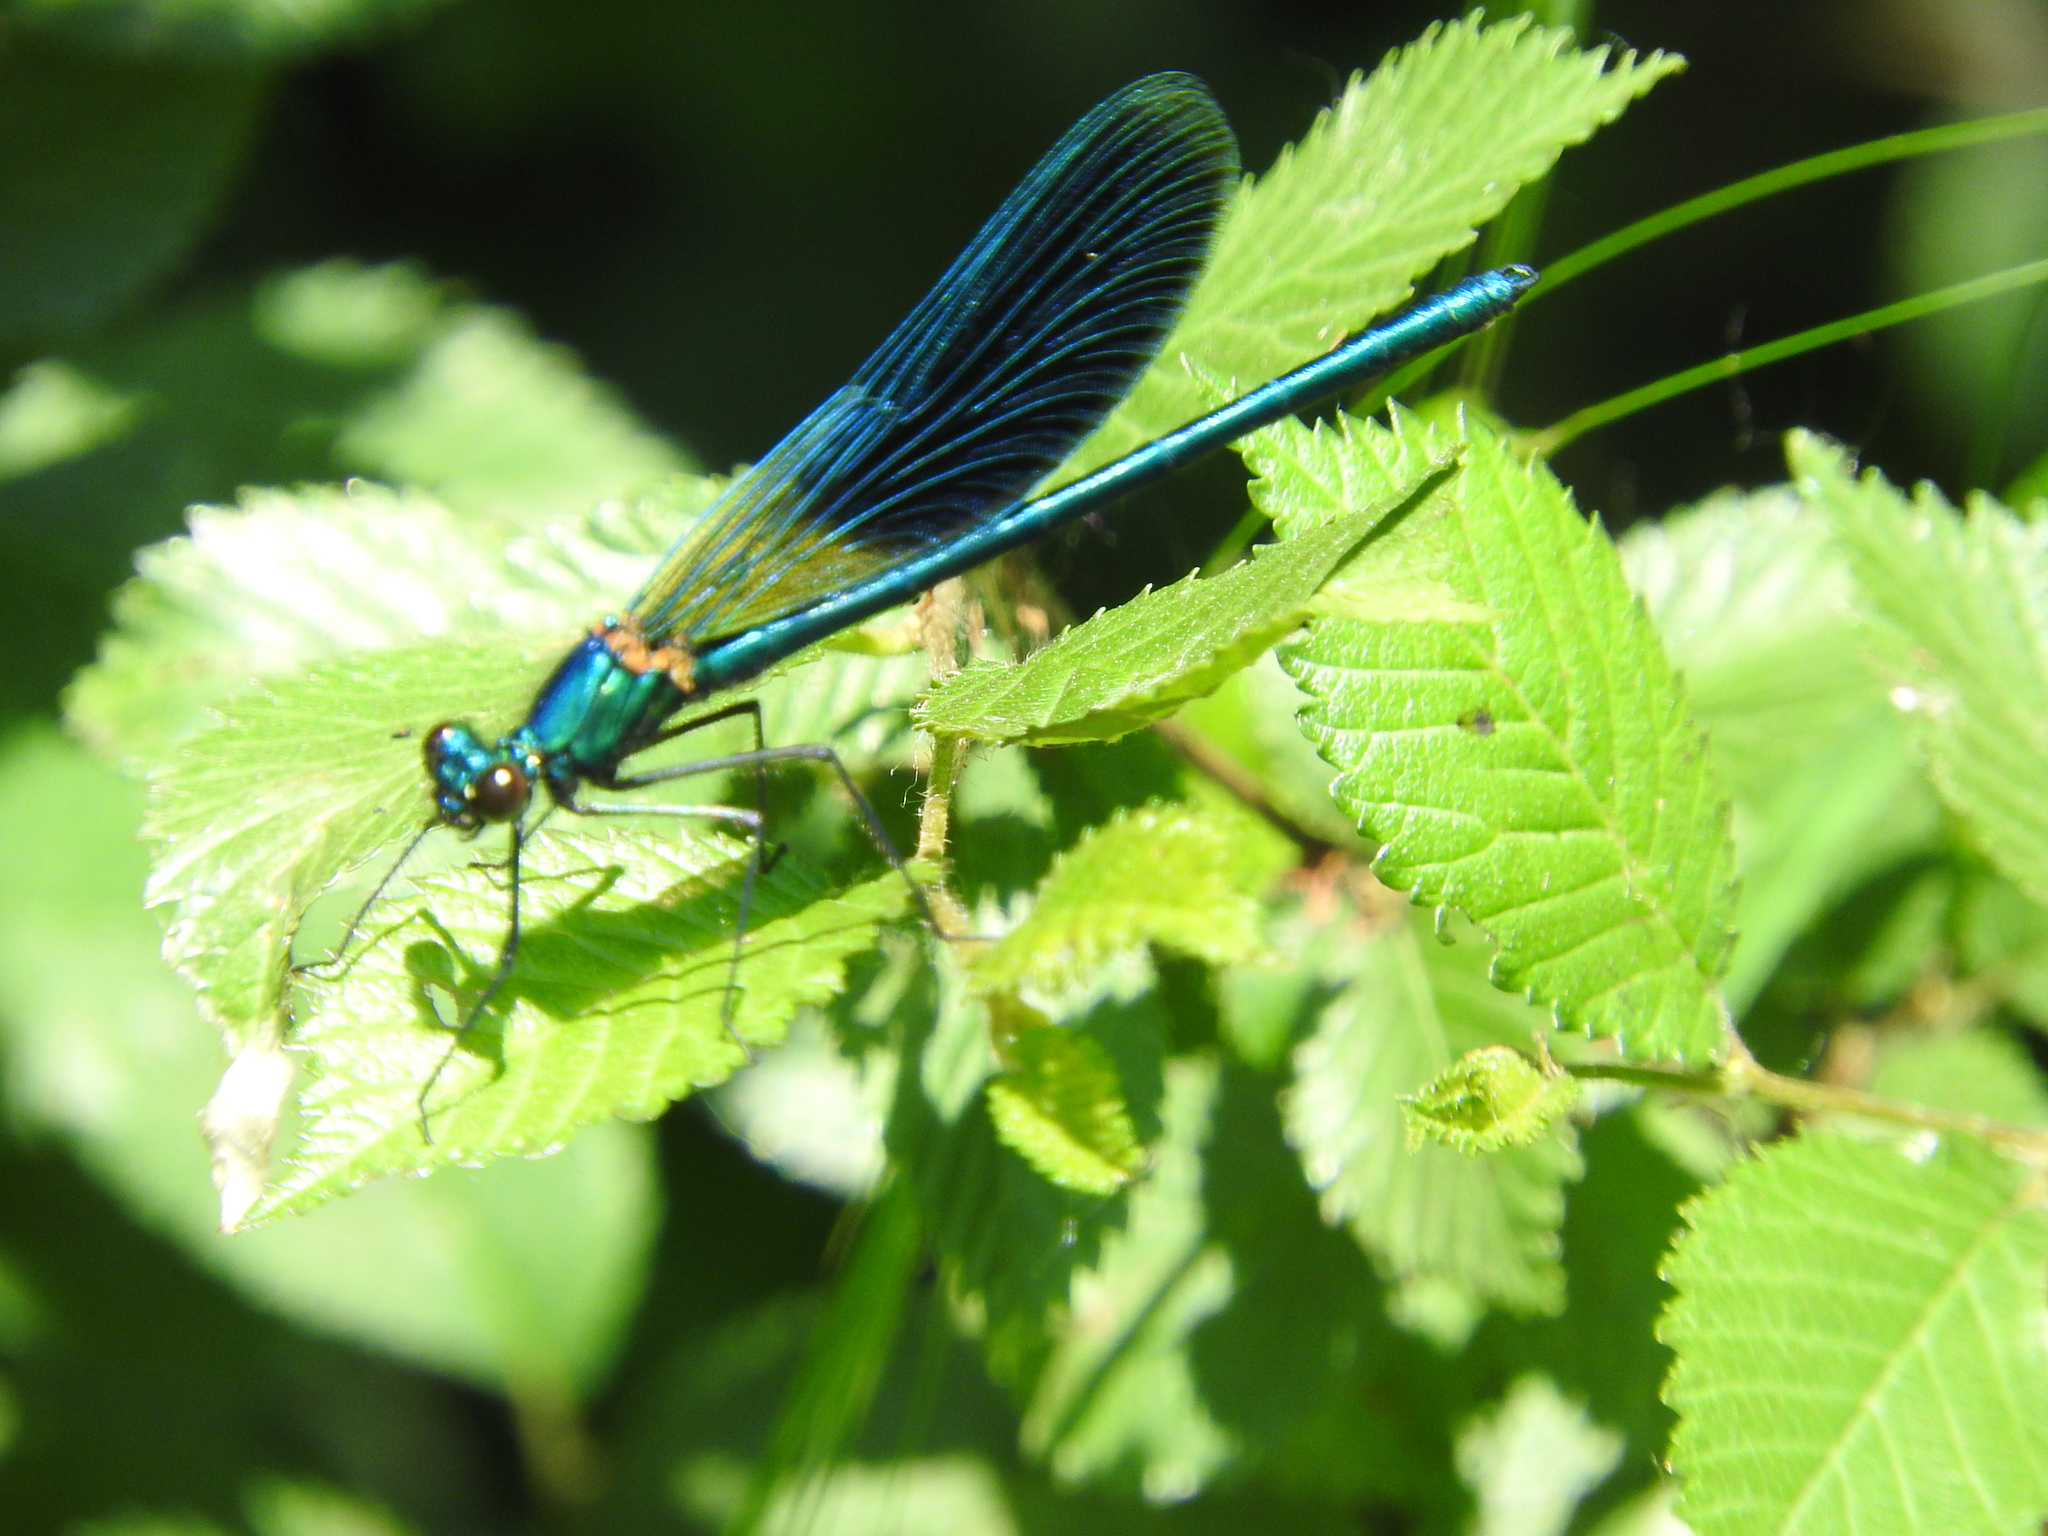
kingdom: Animalia
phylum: Arthropoda
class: Insecta
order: Odonata
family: Calopterygidae
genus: Calopteryx
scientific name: Calopteryx splendens
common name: Banded demoiselle
